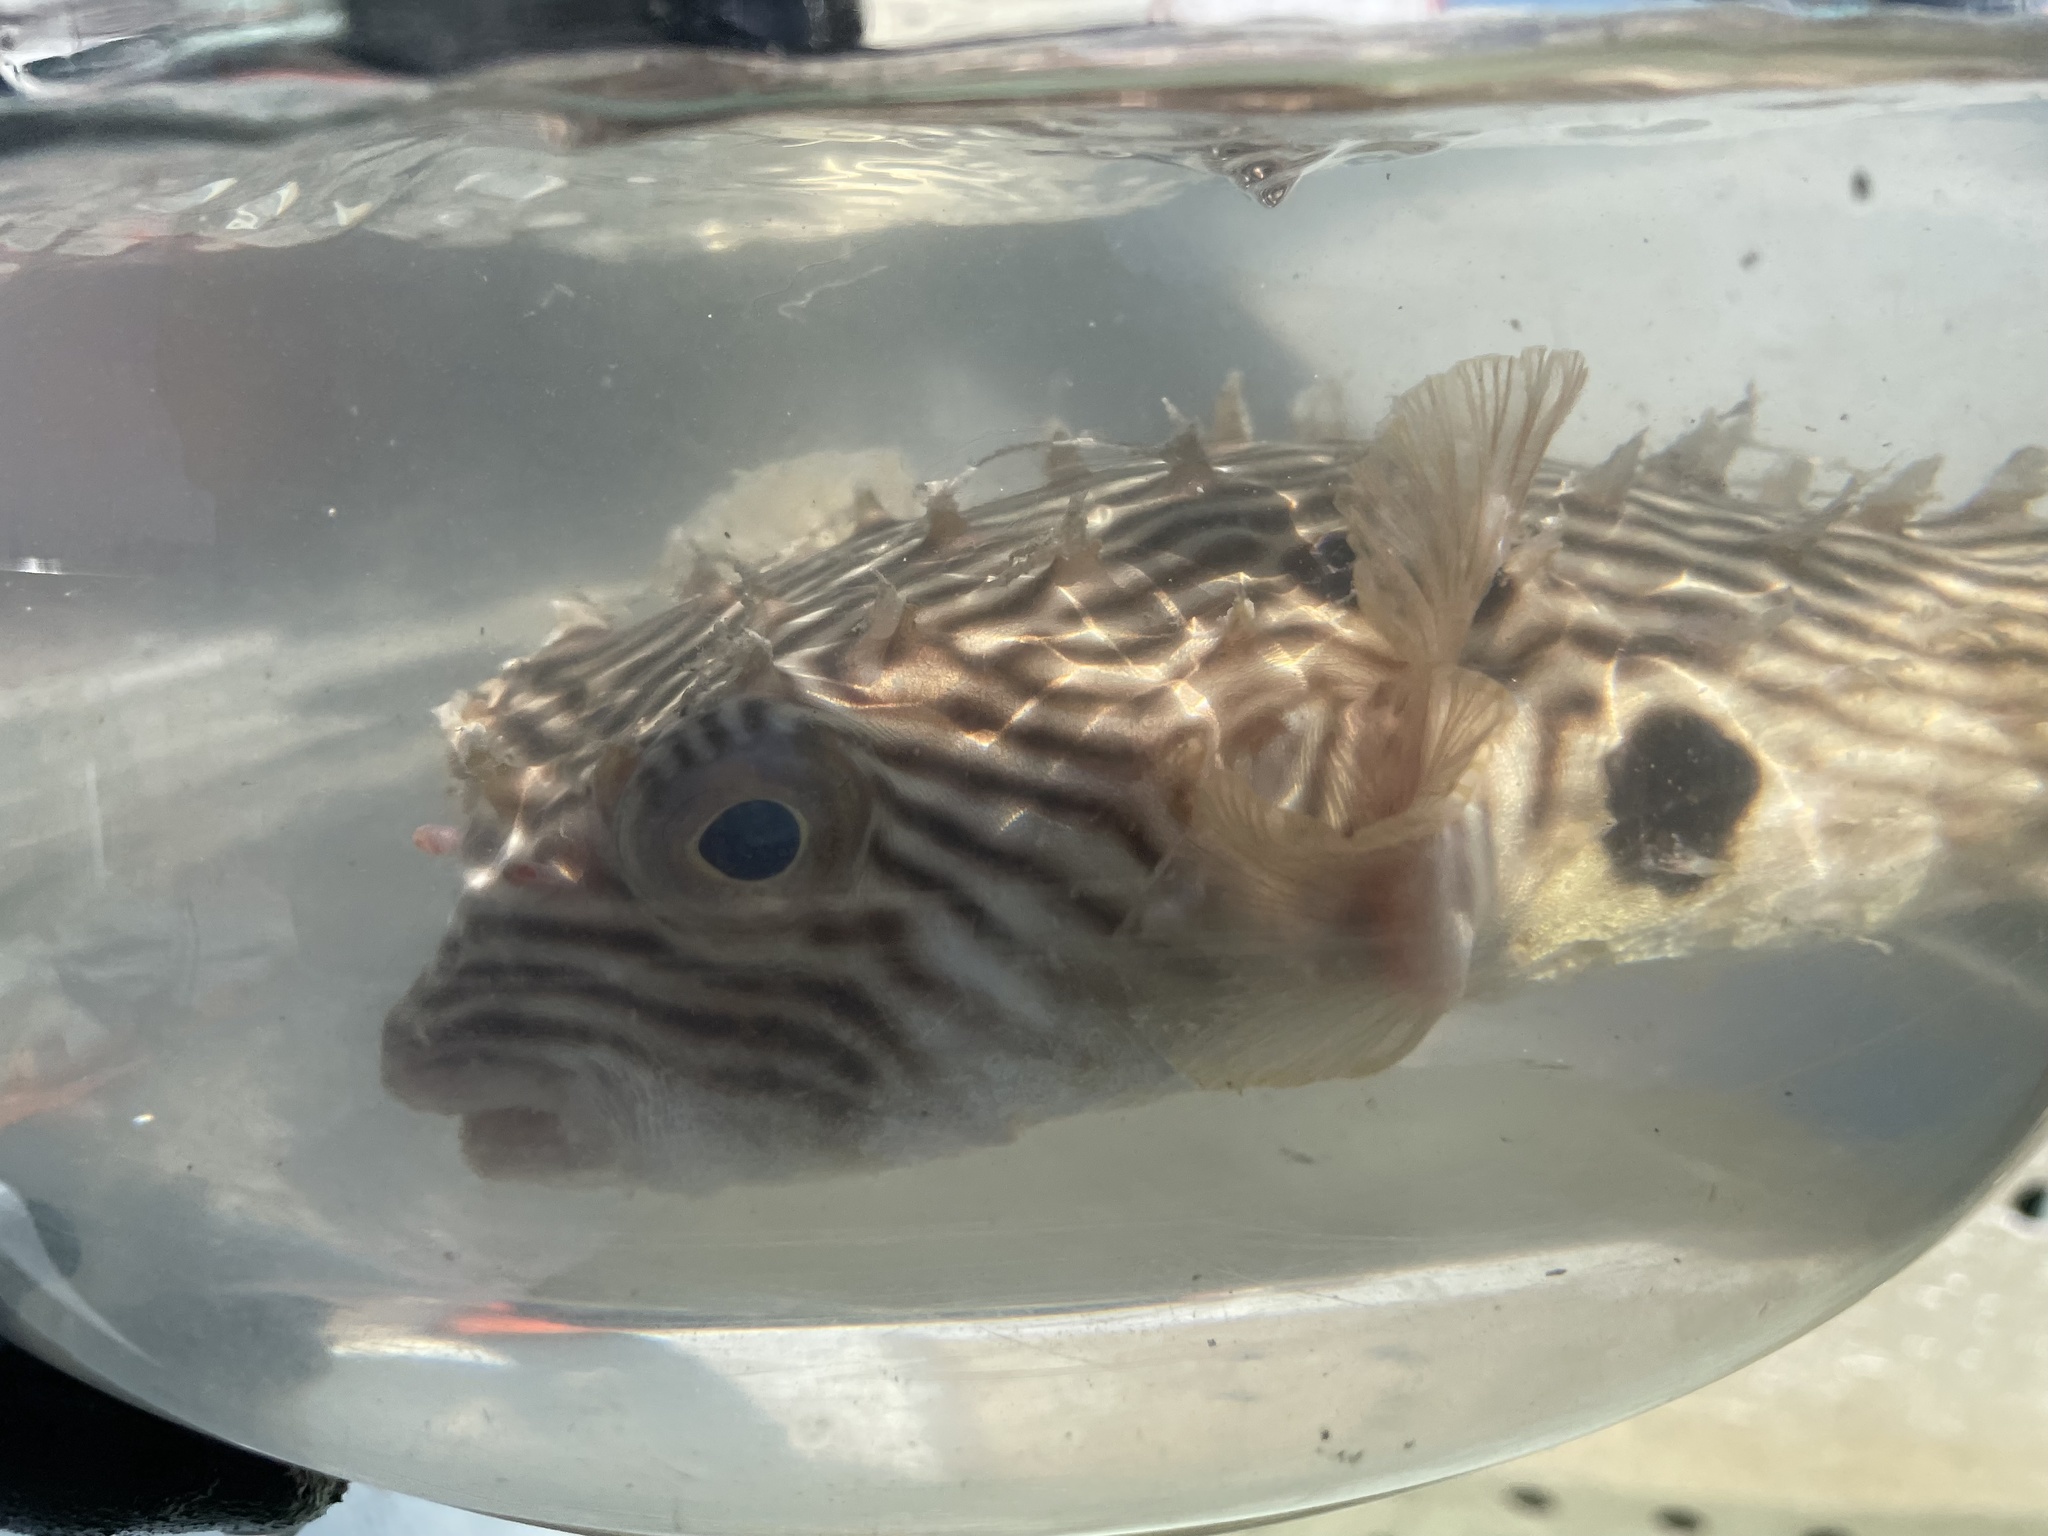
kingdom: Animalia
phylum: Chordata
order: Tetraodontiformes
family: Diodontidae
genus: Chilomycterus
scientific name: Chilomycterus schoepfii
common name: Striped burrfish
